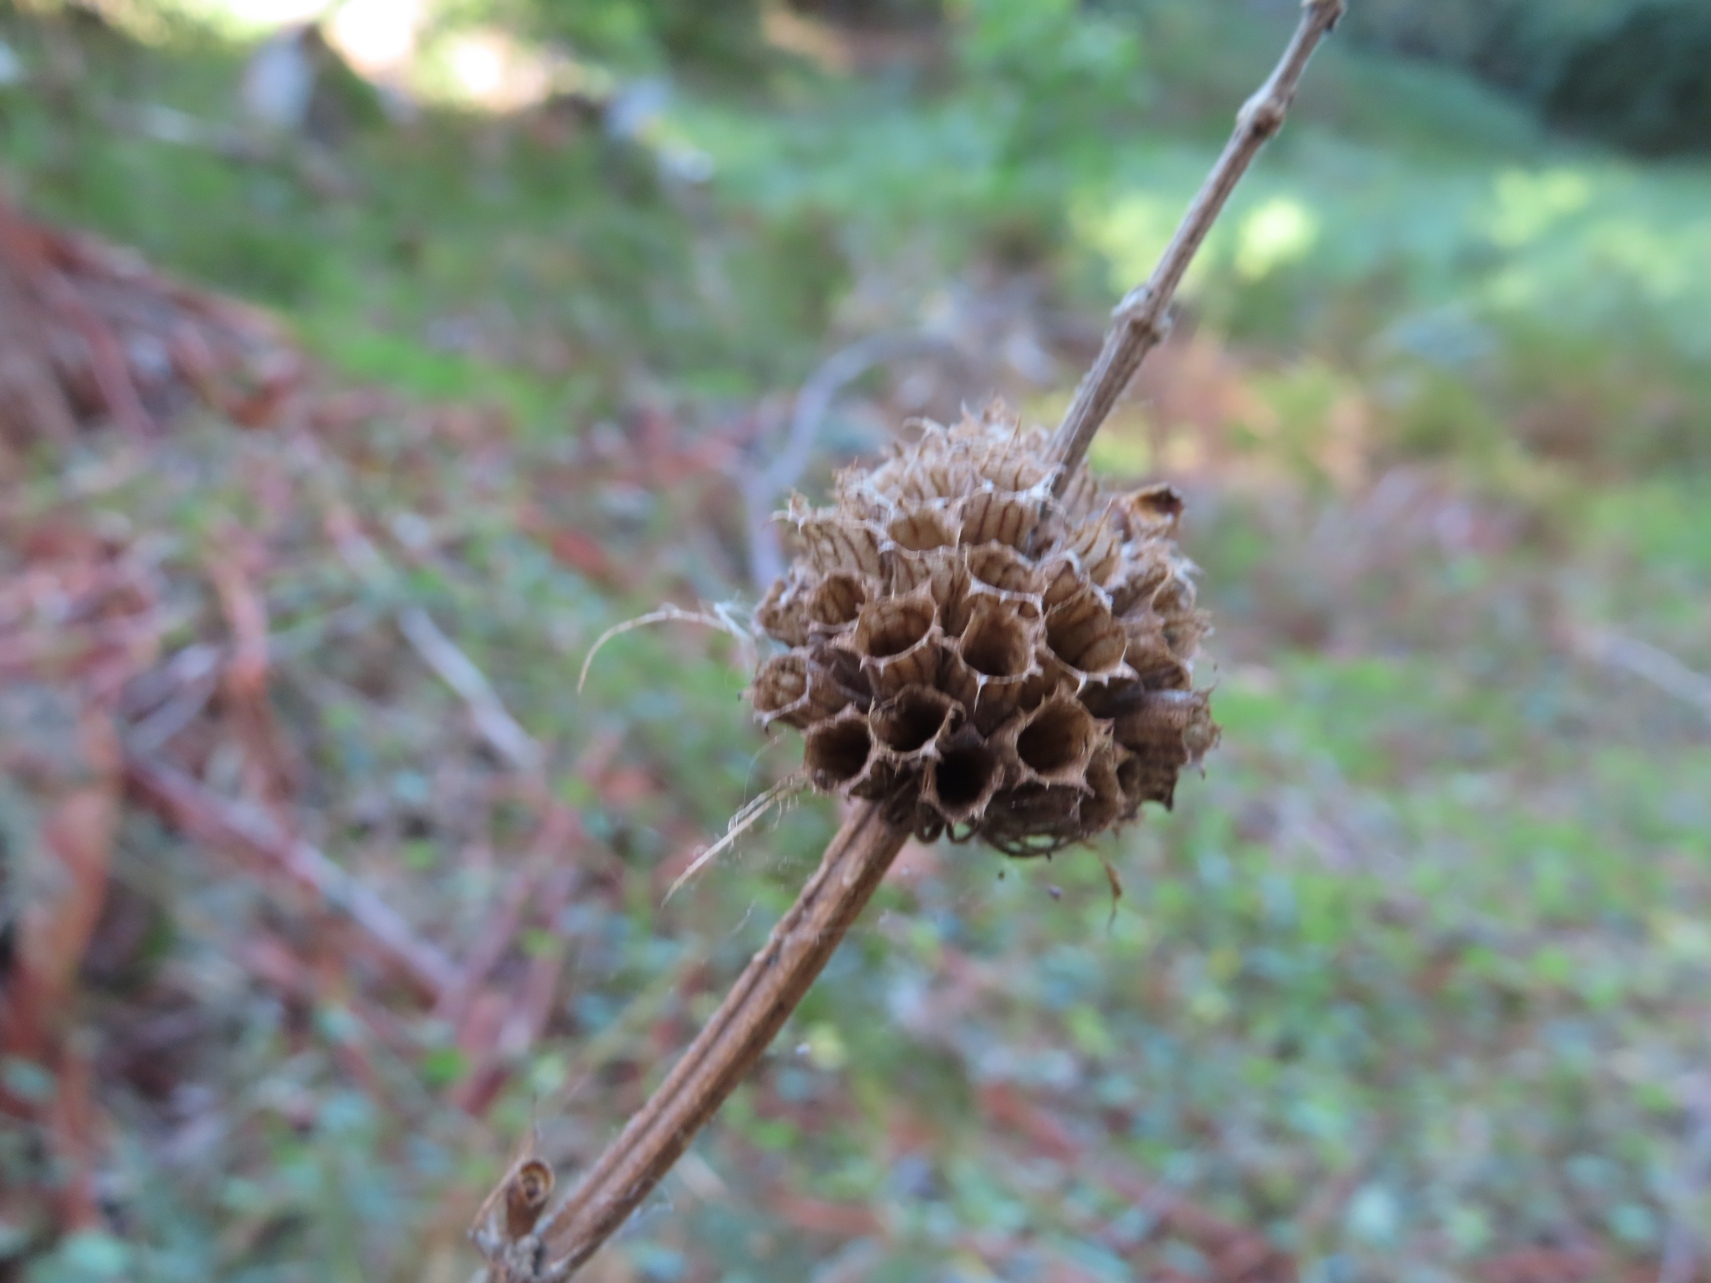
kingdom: Plantae
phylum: Tracheophyta
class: Magnoliopsida
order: Lamiales
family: Lamiaceae
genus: Leonotis
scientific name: Leonotis leonurus
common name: Lion's ear
